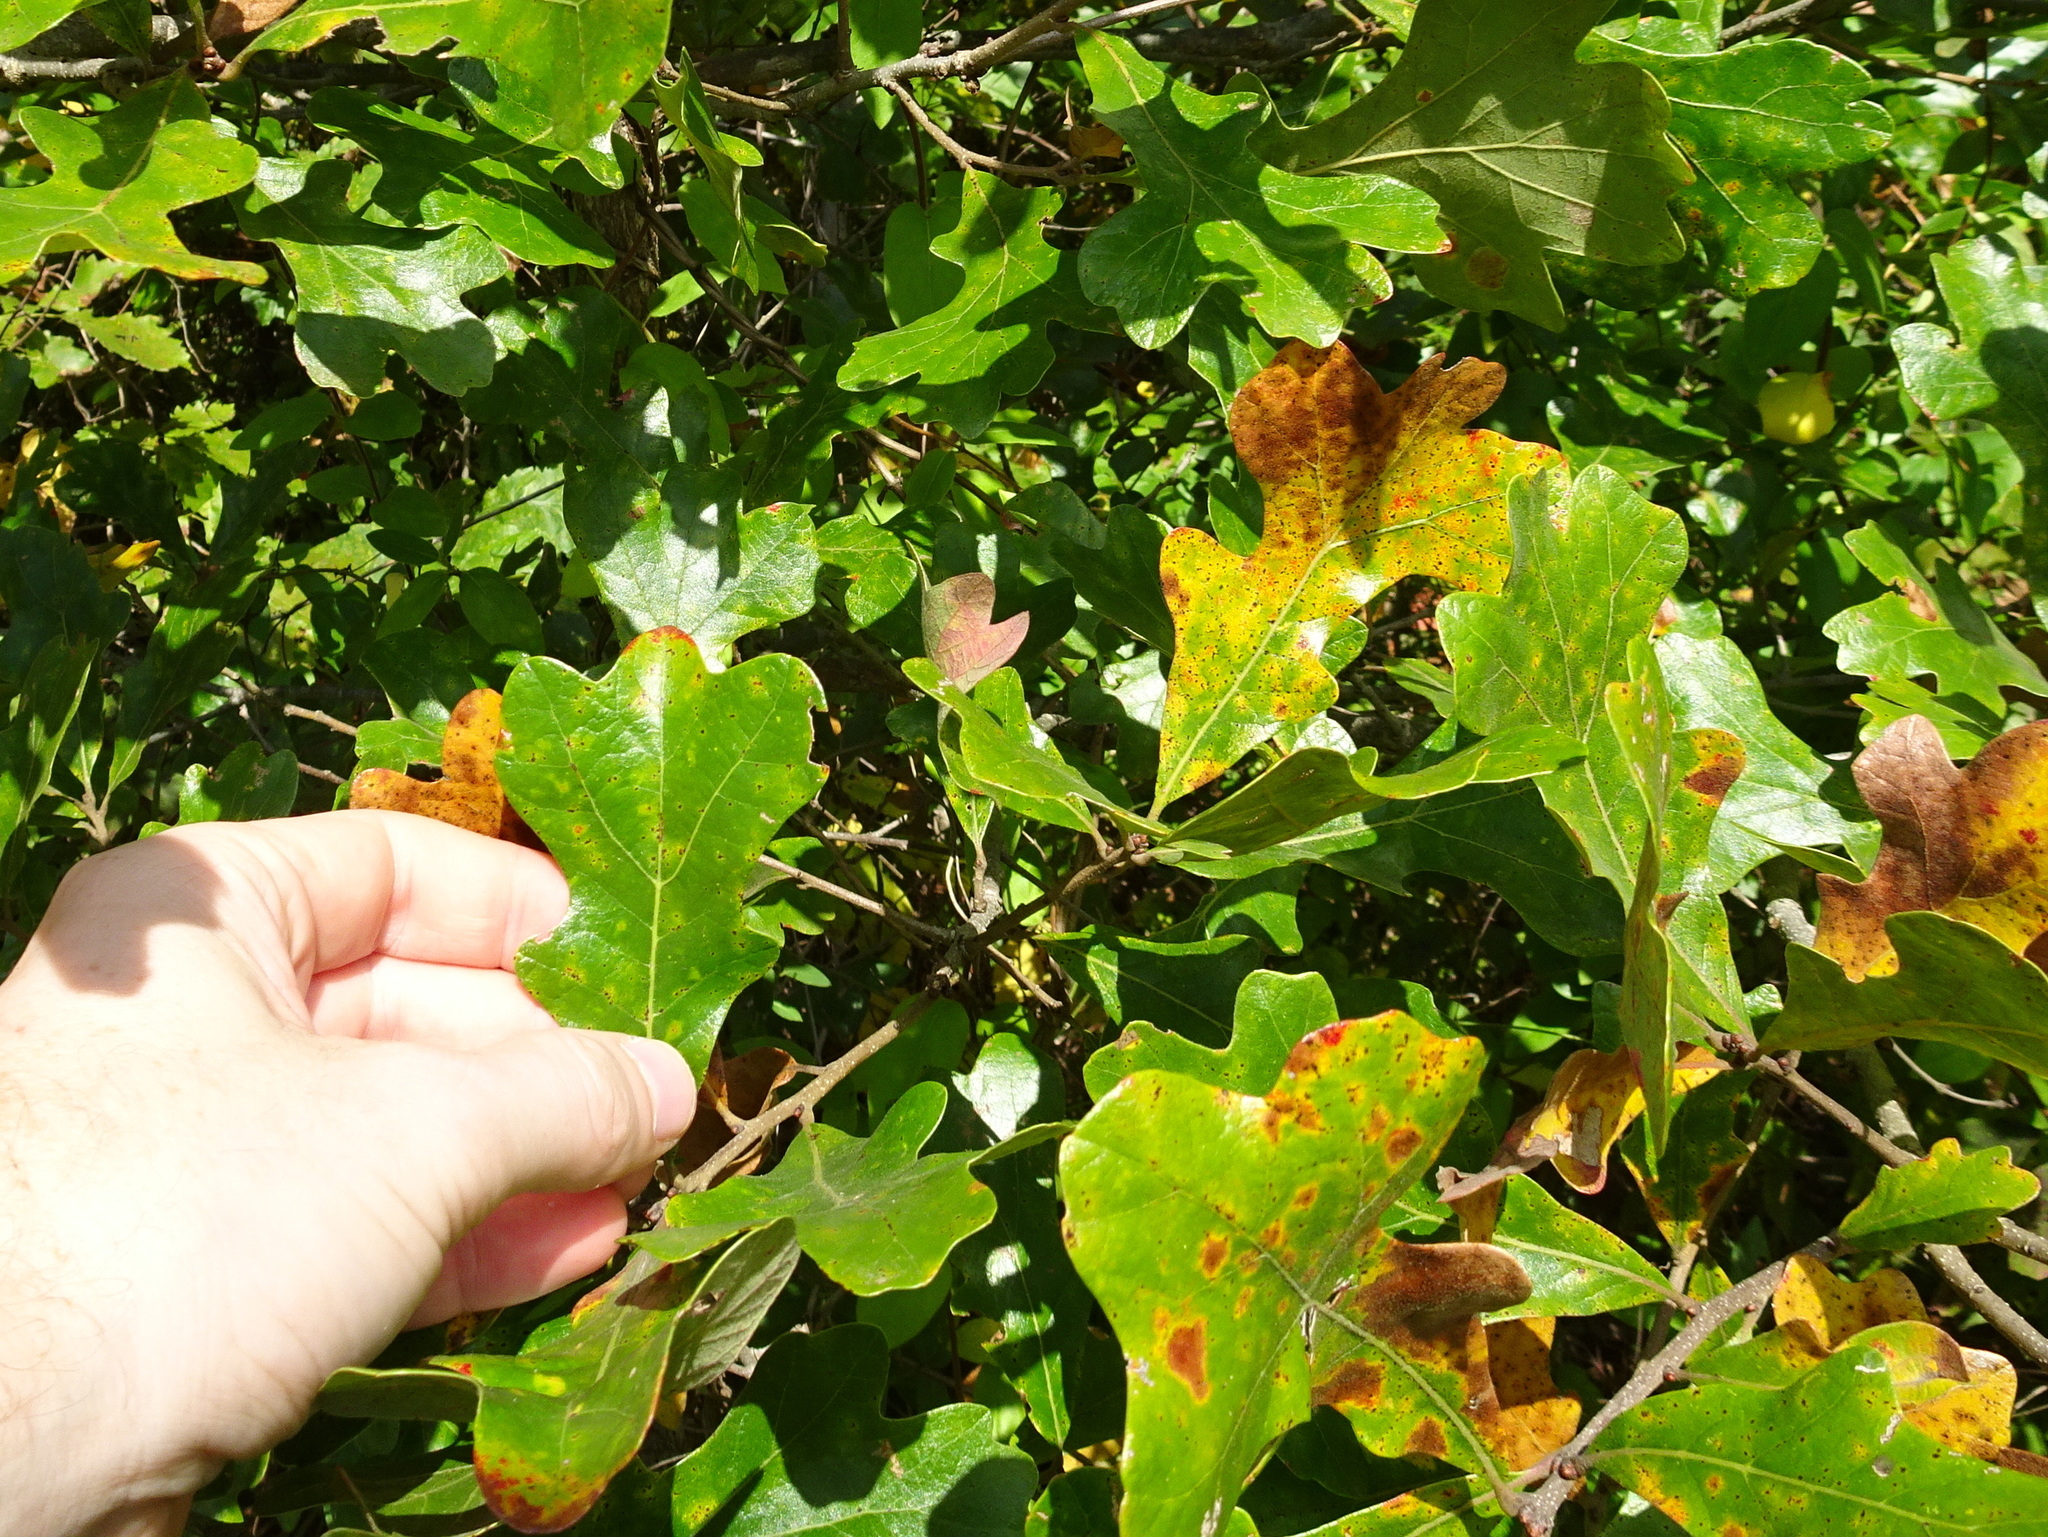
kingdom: Plantae
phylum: Tracheophyta
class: Magnoliopsida
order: Fagales
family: Fagaceae
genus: Quercus
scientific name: Quercus stellata
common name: Post oak
